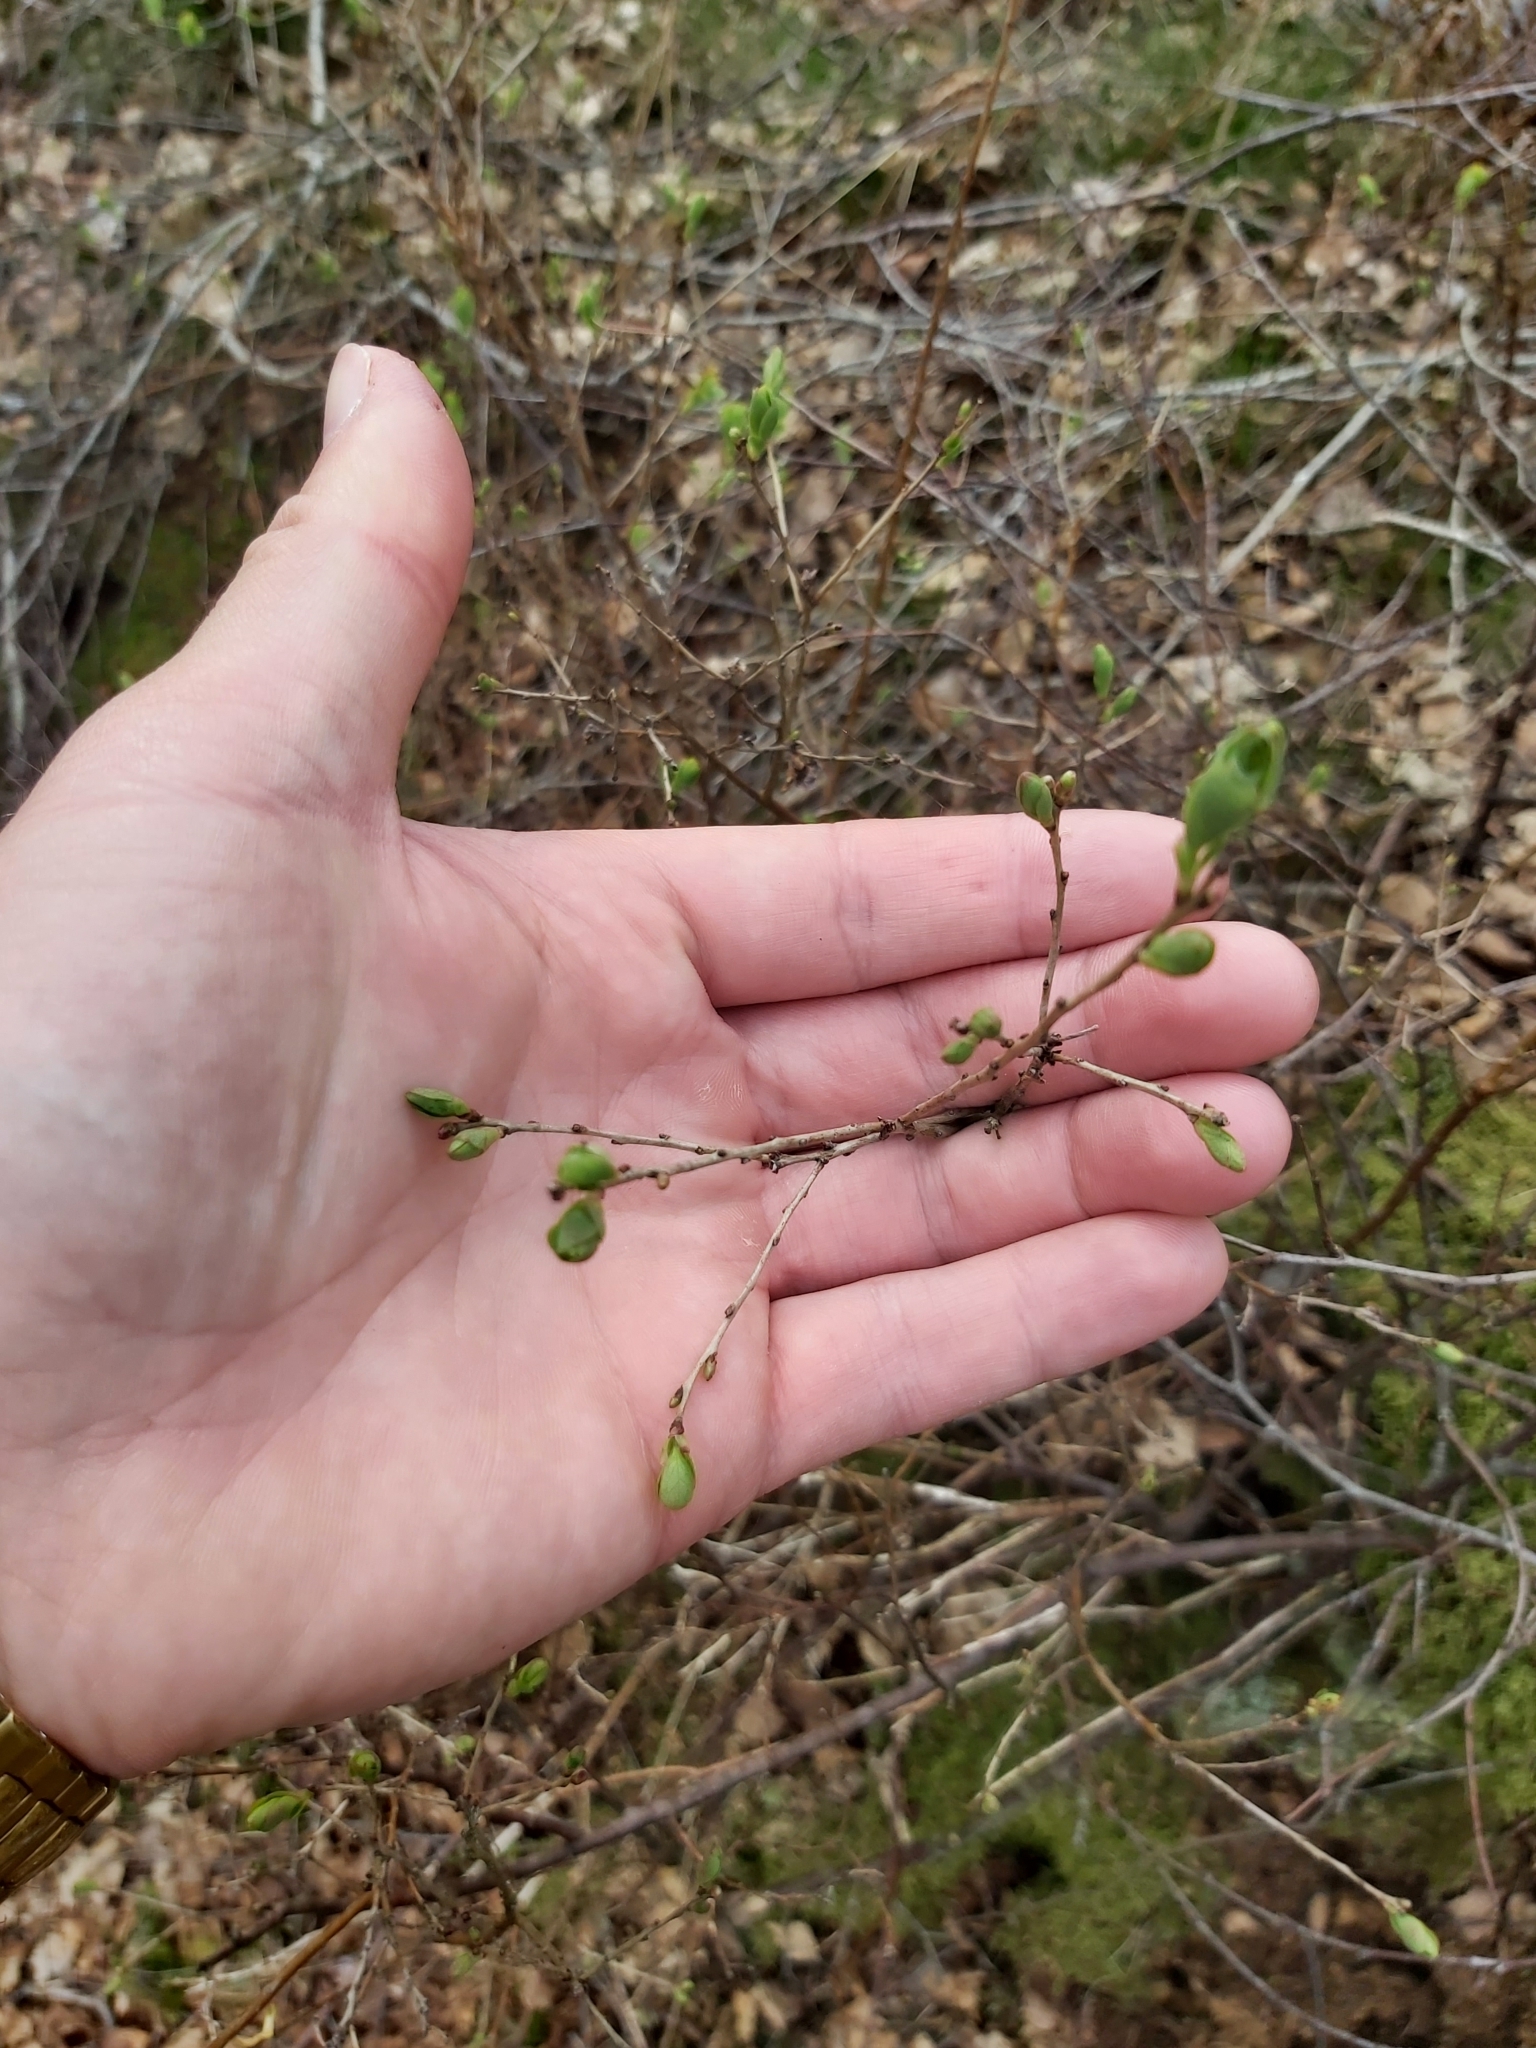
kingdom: Plantae
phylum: Tracheophyta
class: Magnoliopsida
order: Ericales
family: Ericaceae
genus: Vaccinium
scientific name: Vaccinium uliginosum
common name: Bog bilberry
